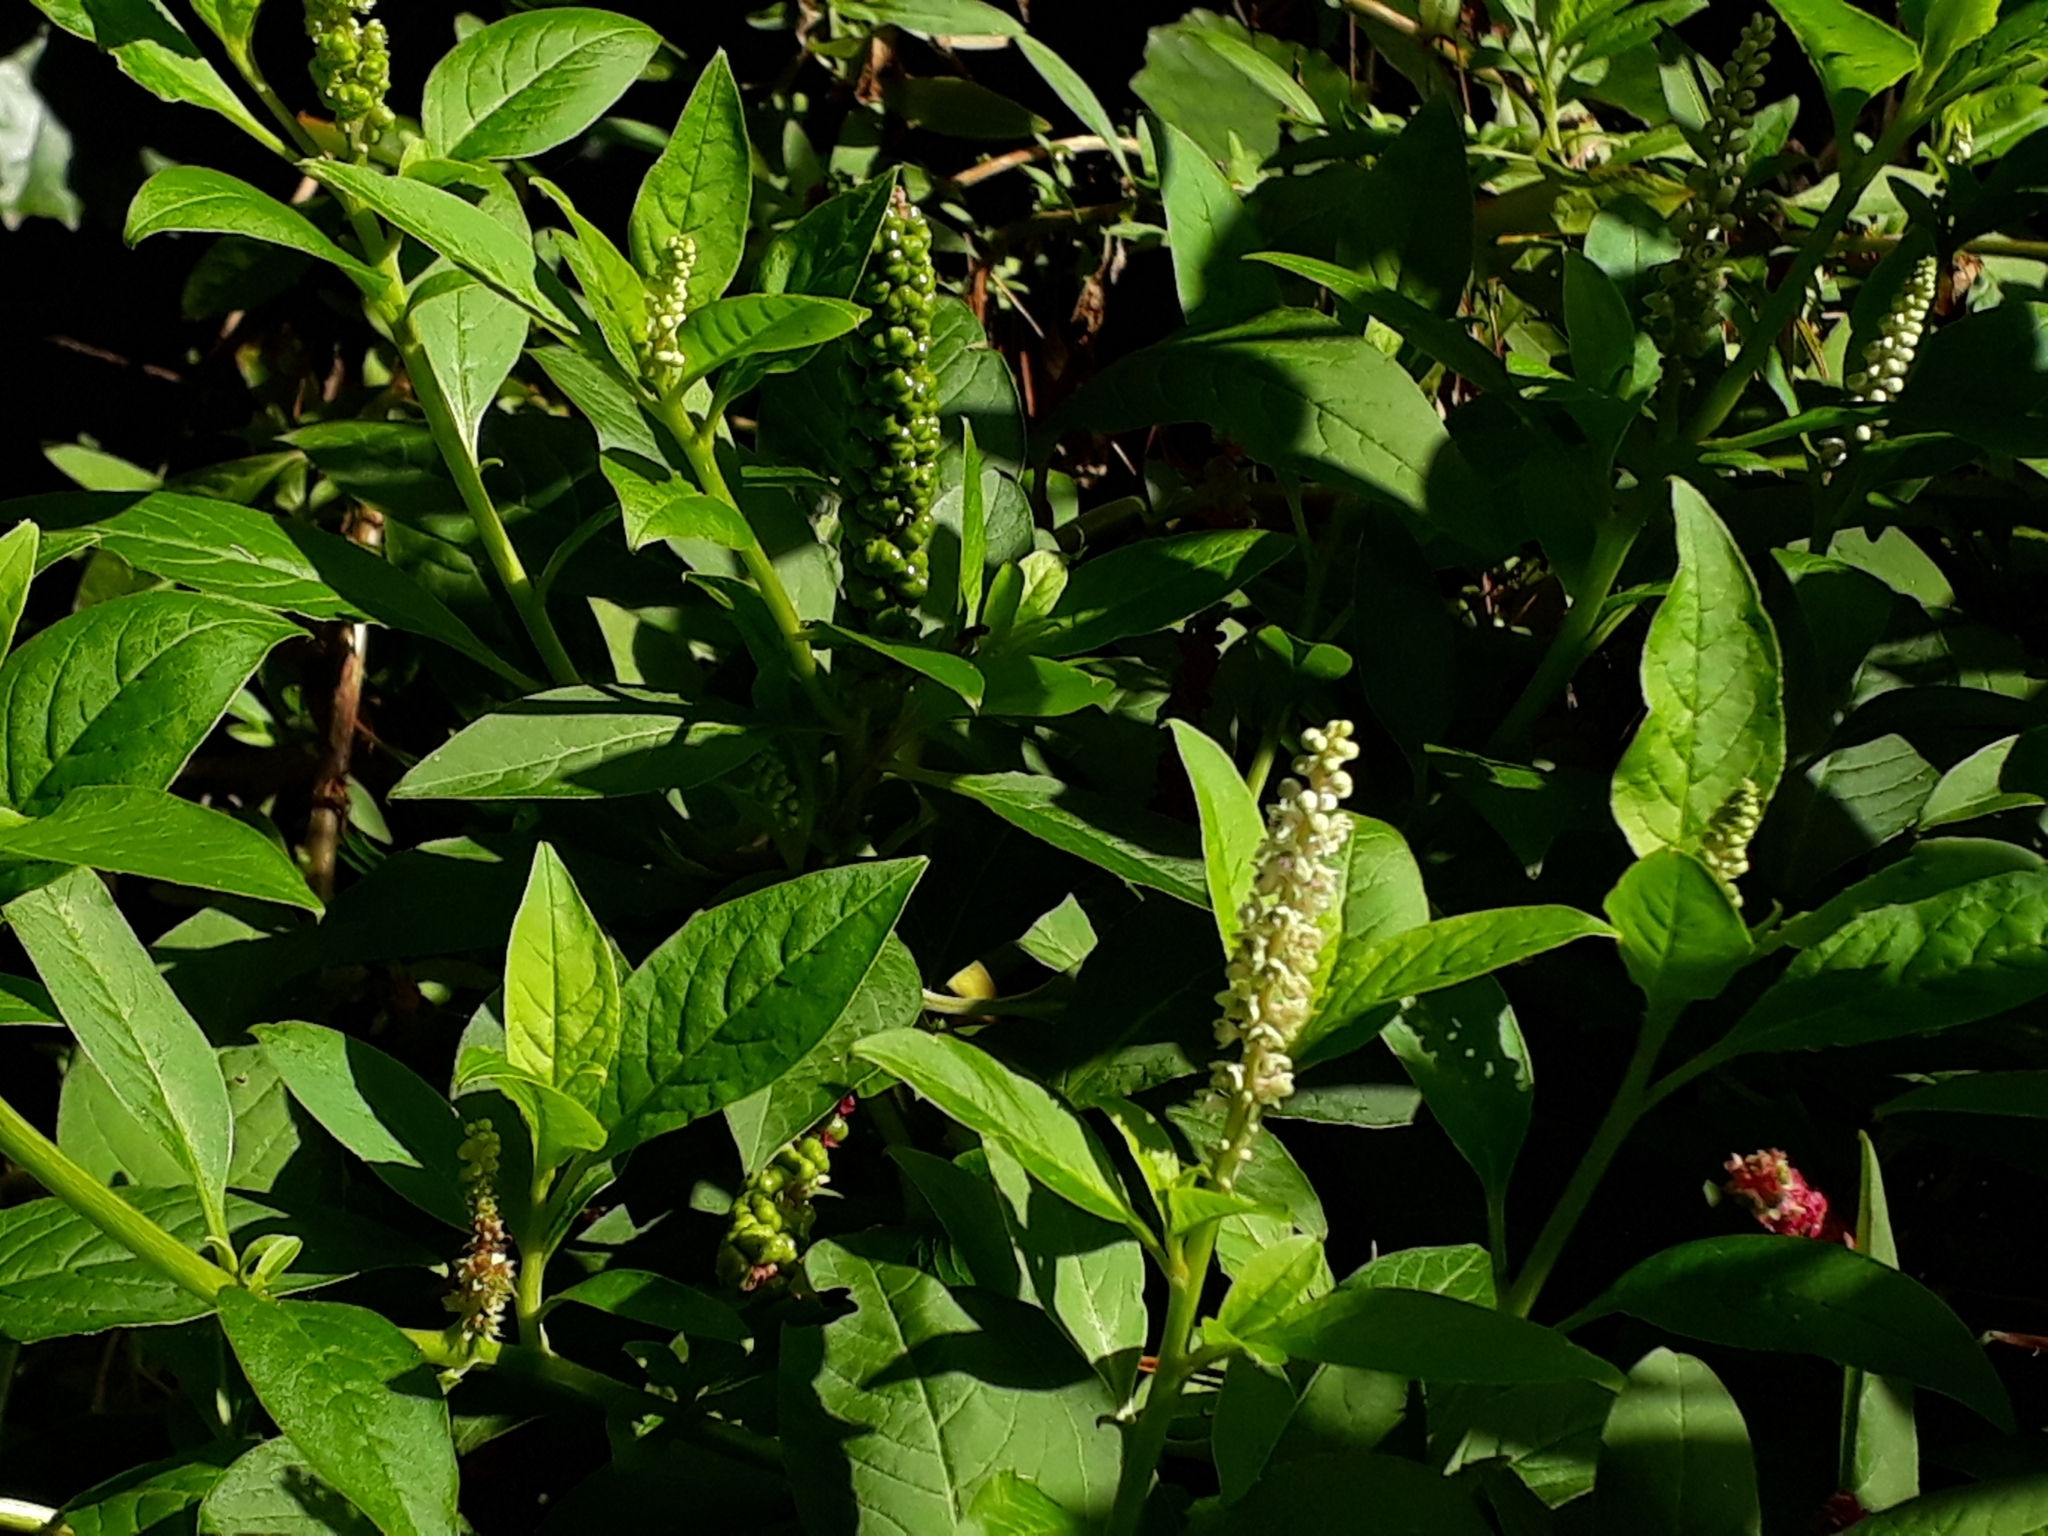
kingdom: Plantae
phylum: Tracheophyta
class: Magnoliopsida
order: Caryophyllales
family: Phytolaccaceae
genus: Phytolacca
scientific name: Phytolacca icosandra
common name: Button pokeweed
